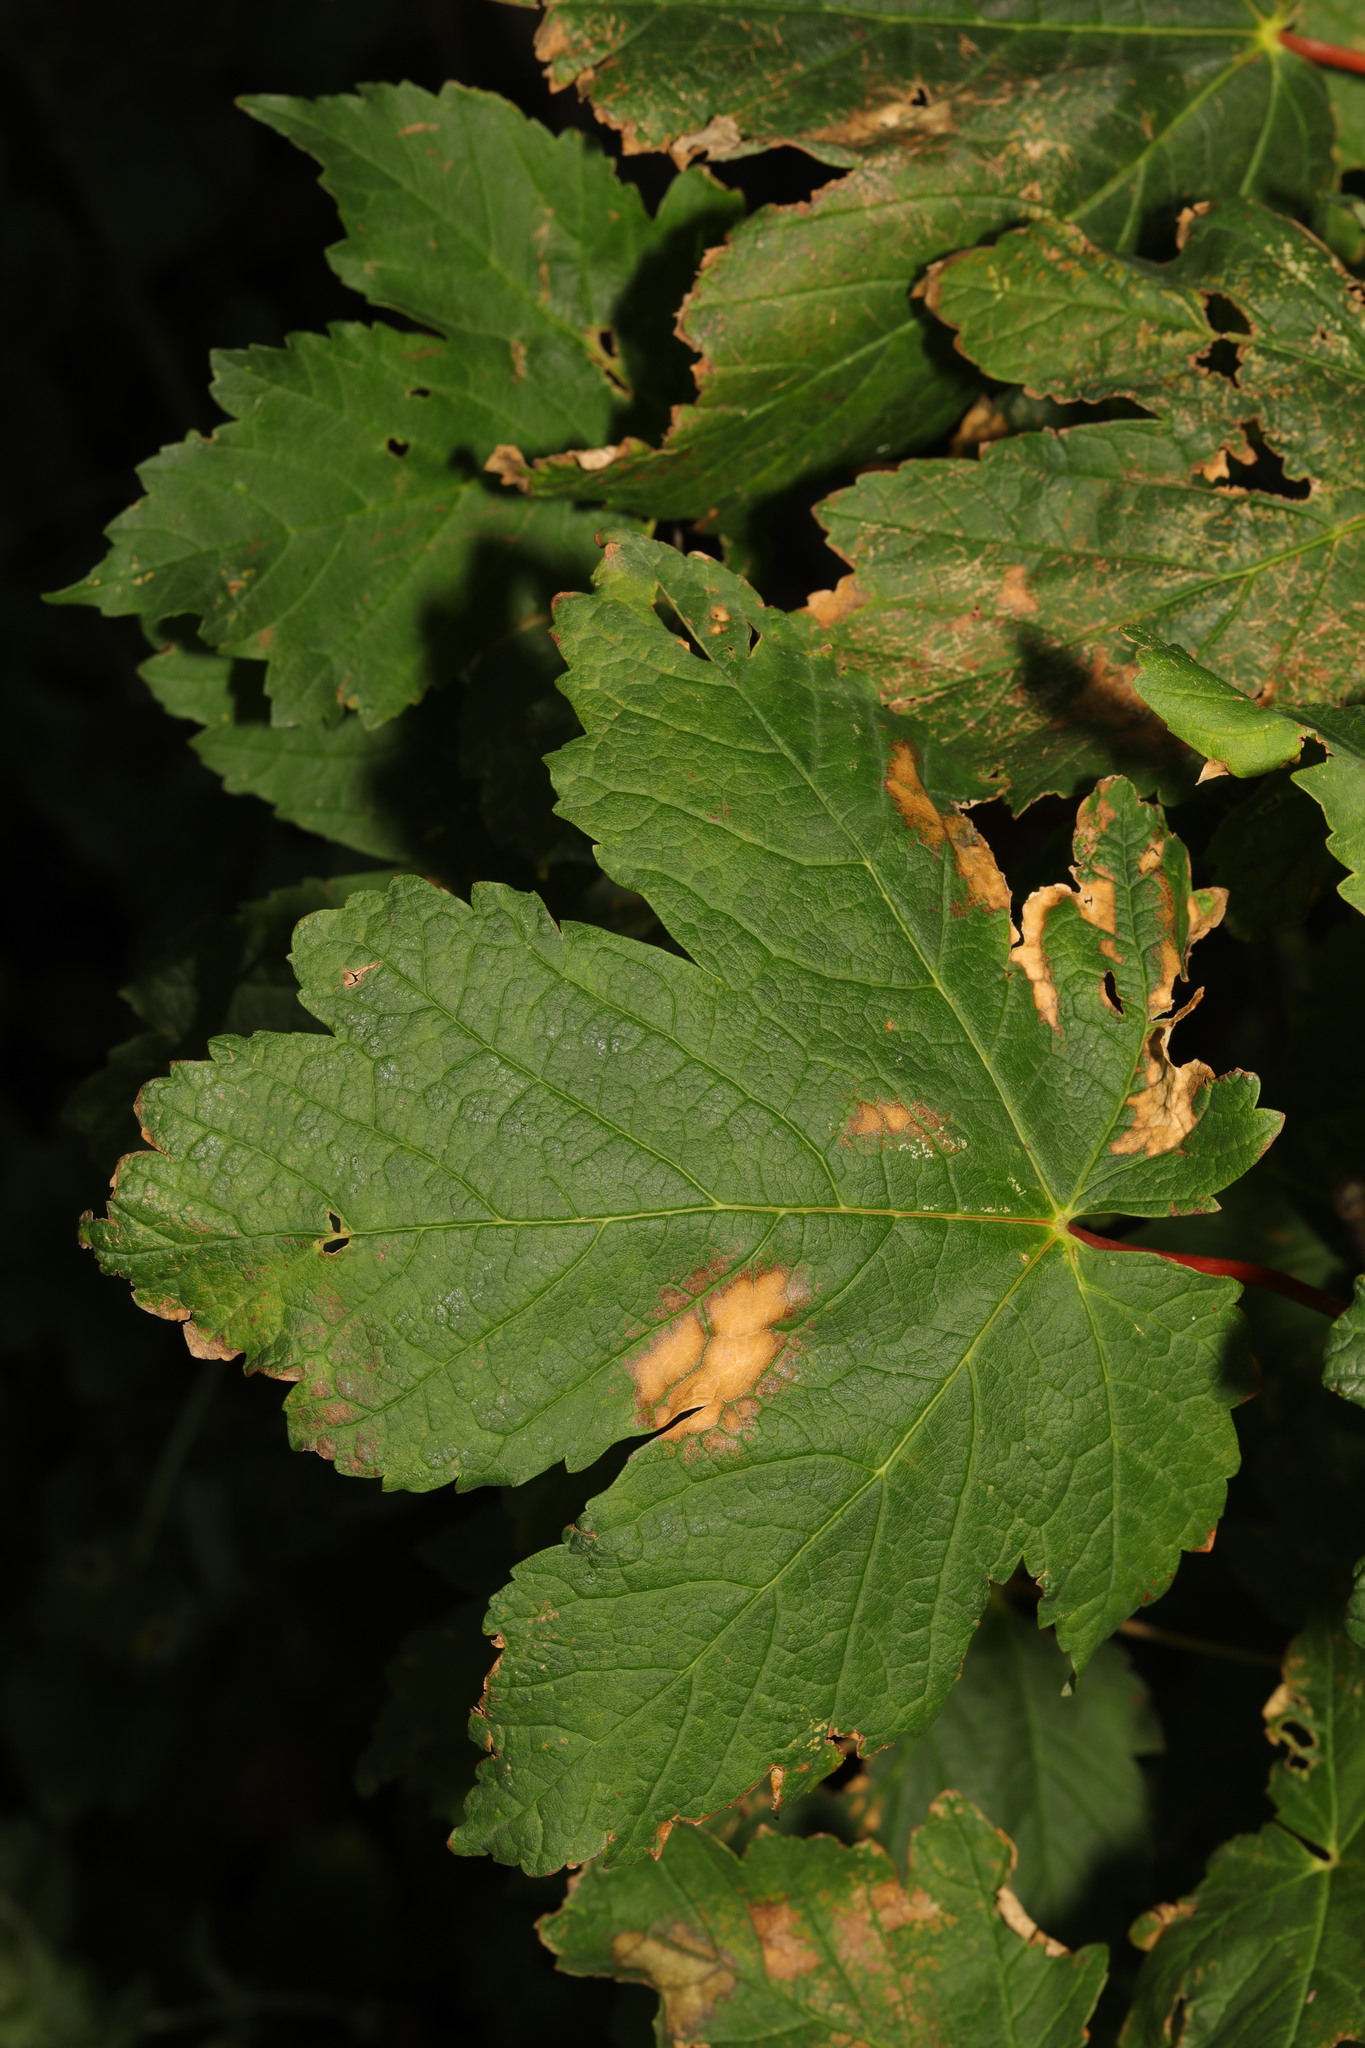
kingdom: Plantae
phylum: Tracheophyta
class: Magnoliopsida
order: Sapindales
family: Sapindaceae
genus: Acer
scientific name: Acer pseudoplatanus
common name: Sycamore
